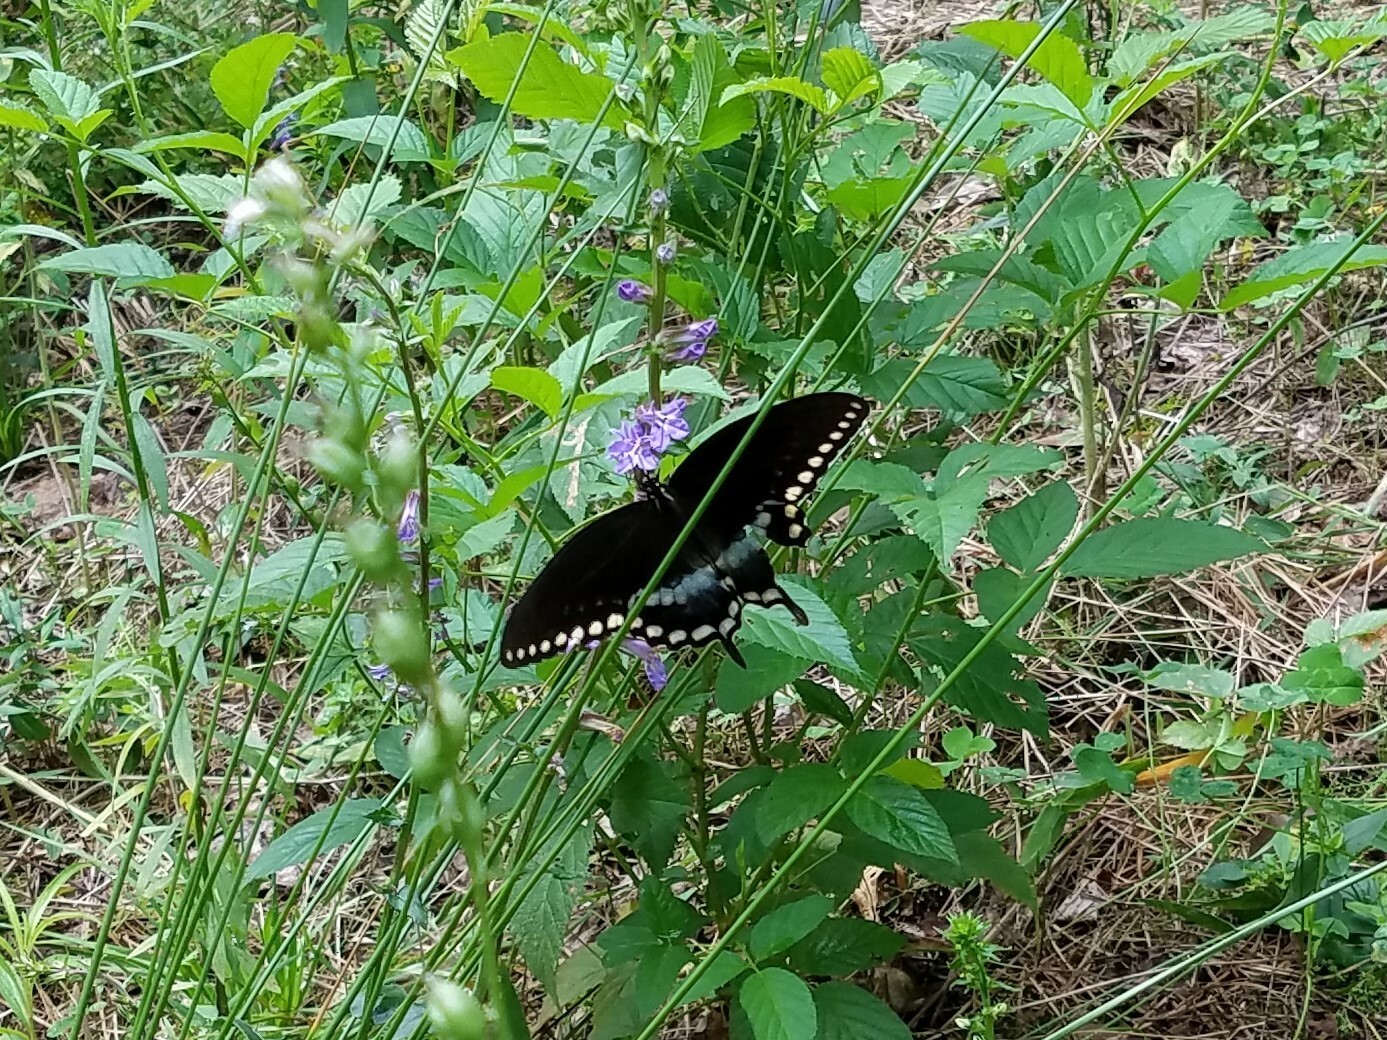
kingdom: Animalia
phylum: Arthropoda
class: Insecta
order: Lepidoptera
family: Papilionidae
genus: Papilio
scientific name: Papilio troilus
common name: Spicebush swallowtail
